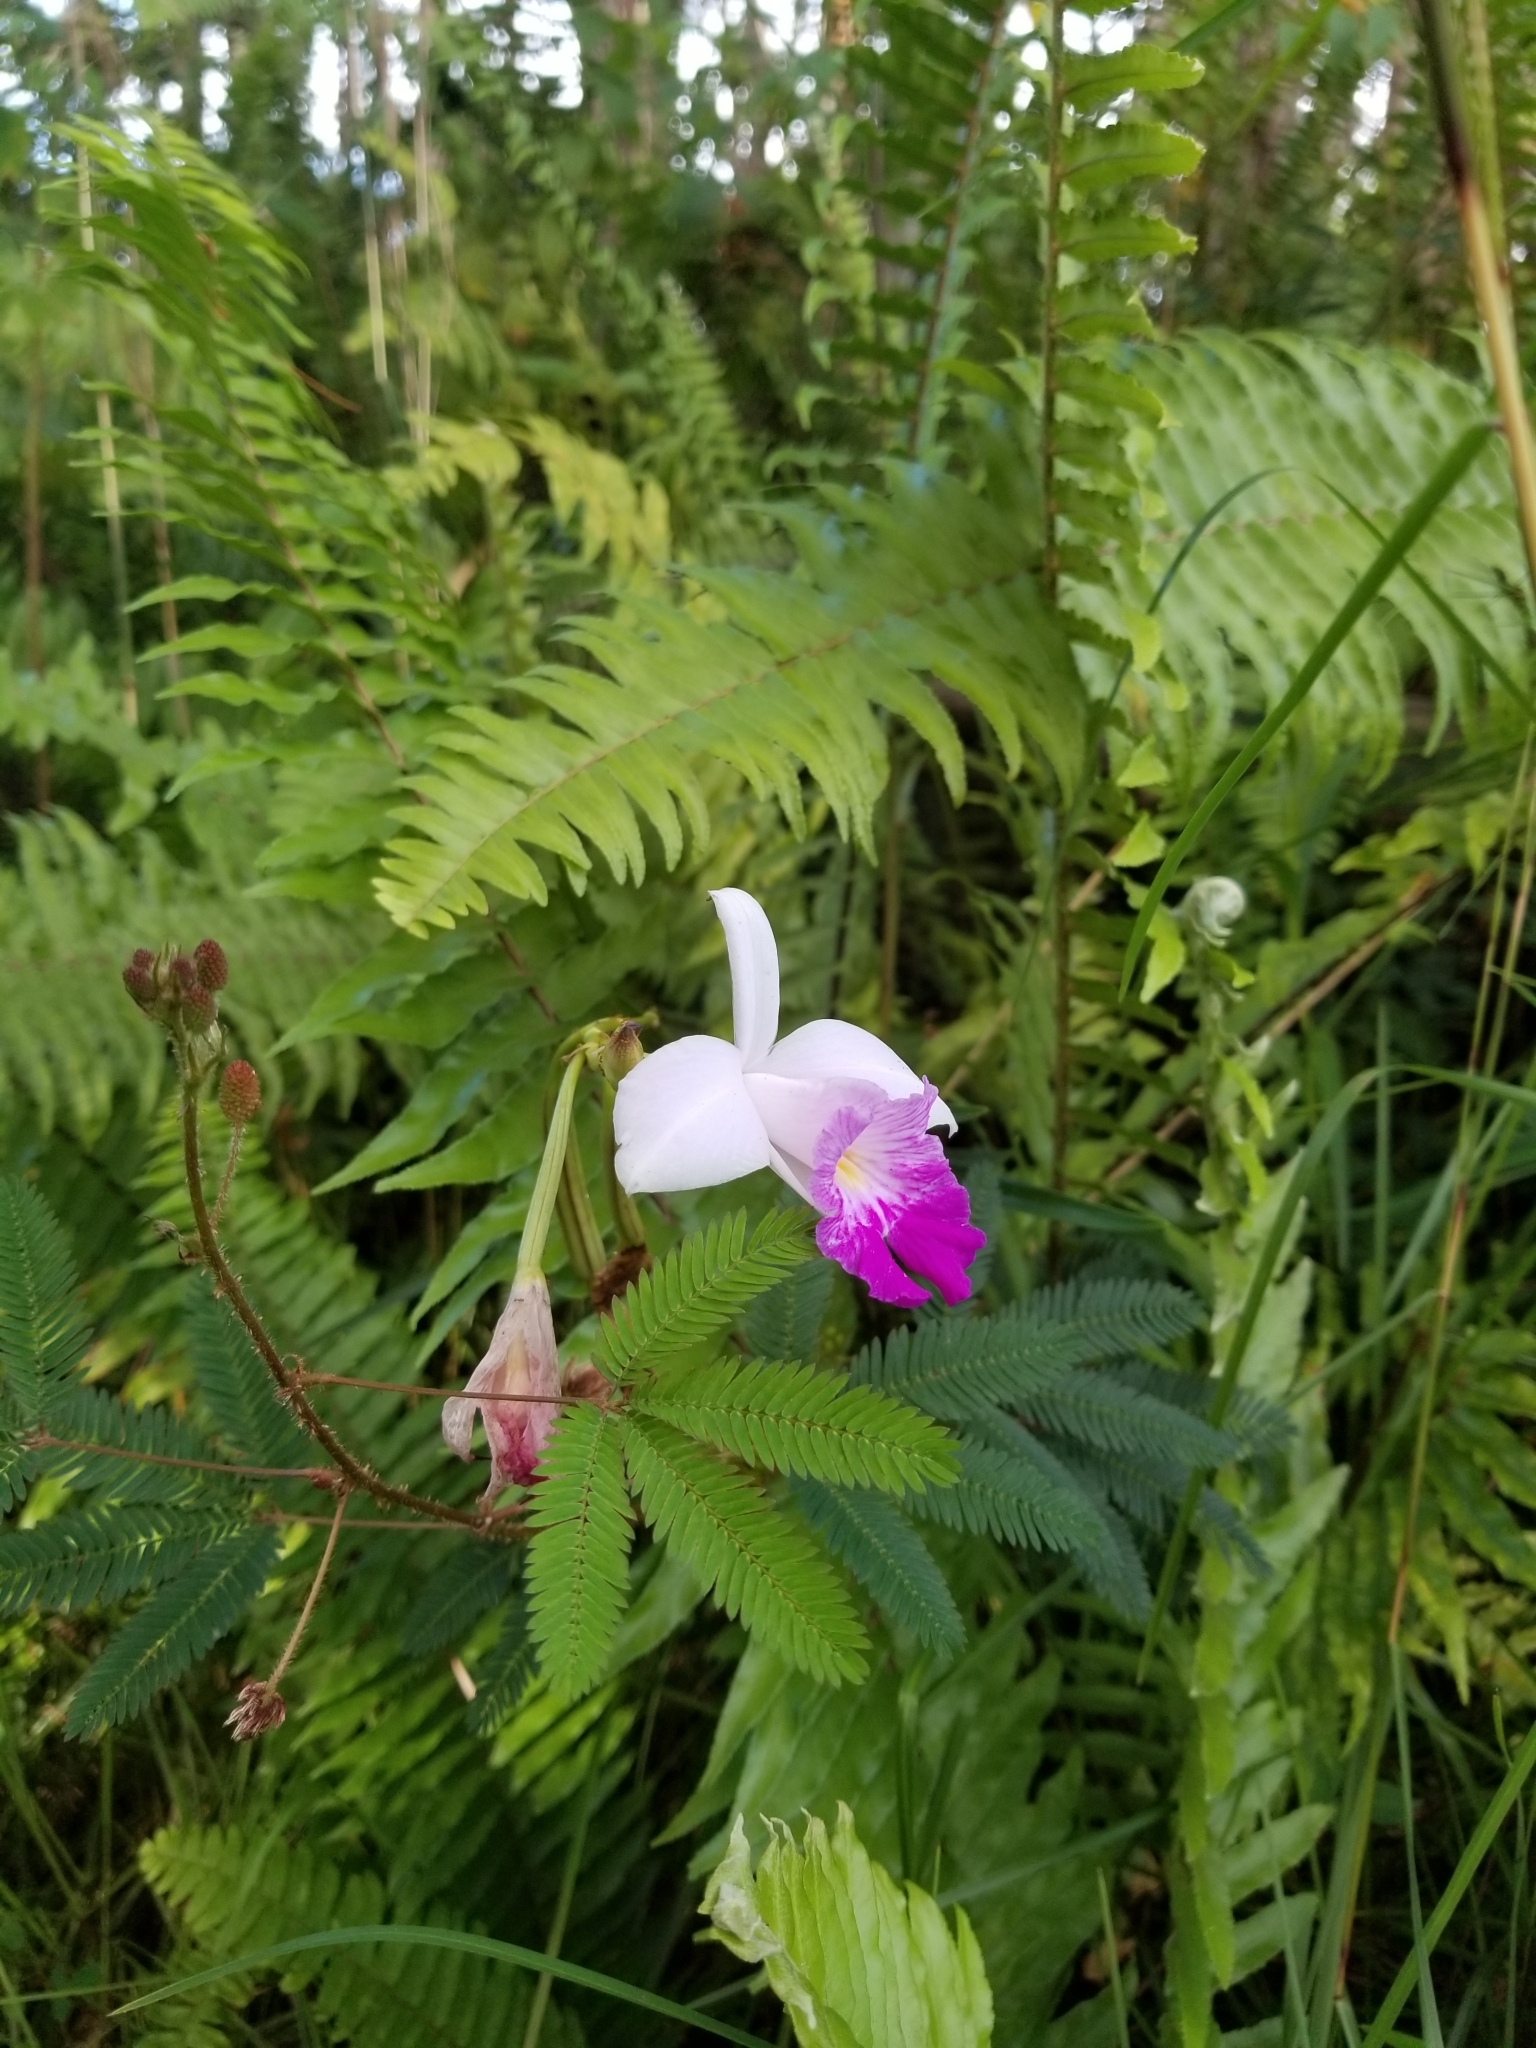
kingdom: Plantae
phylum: Tracheophyta
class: Liliopsida
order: Asparagales
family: Orchidaceae
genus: Arundina
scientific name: Arundina graminifolia
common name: Bamboo orchid
